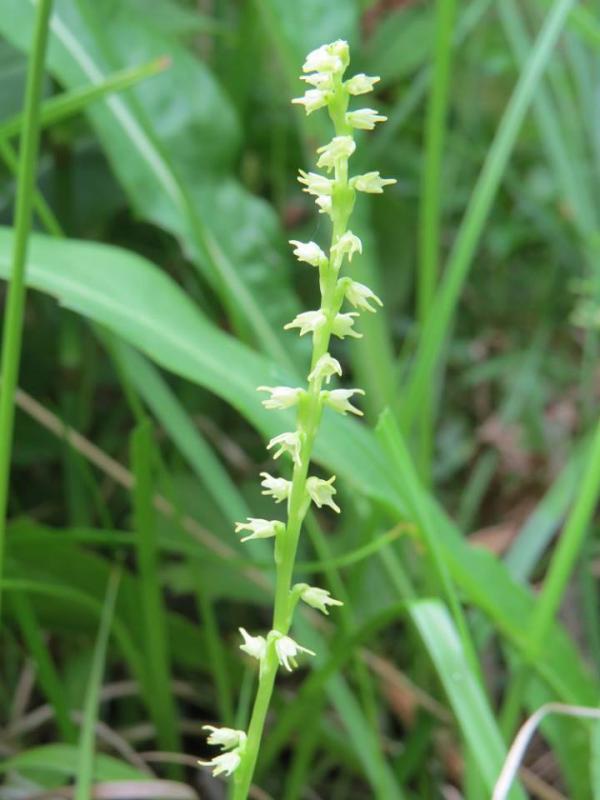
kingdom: Plantae
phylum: Tracheophyta
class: Liliopsida
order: Asparagales
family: Orchidaceae
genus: Herminium
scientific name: Herminium monorchis
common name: Musk orchid
